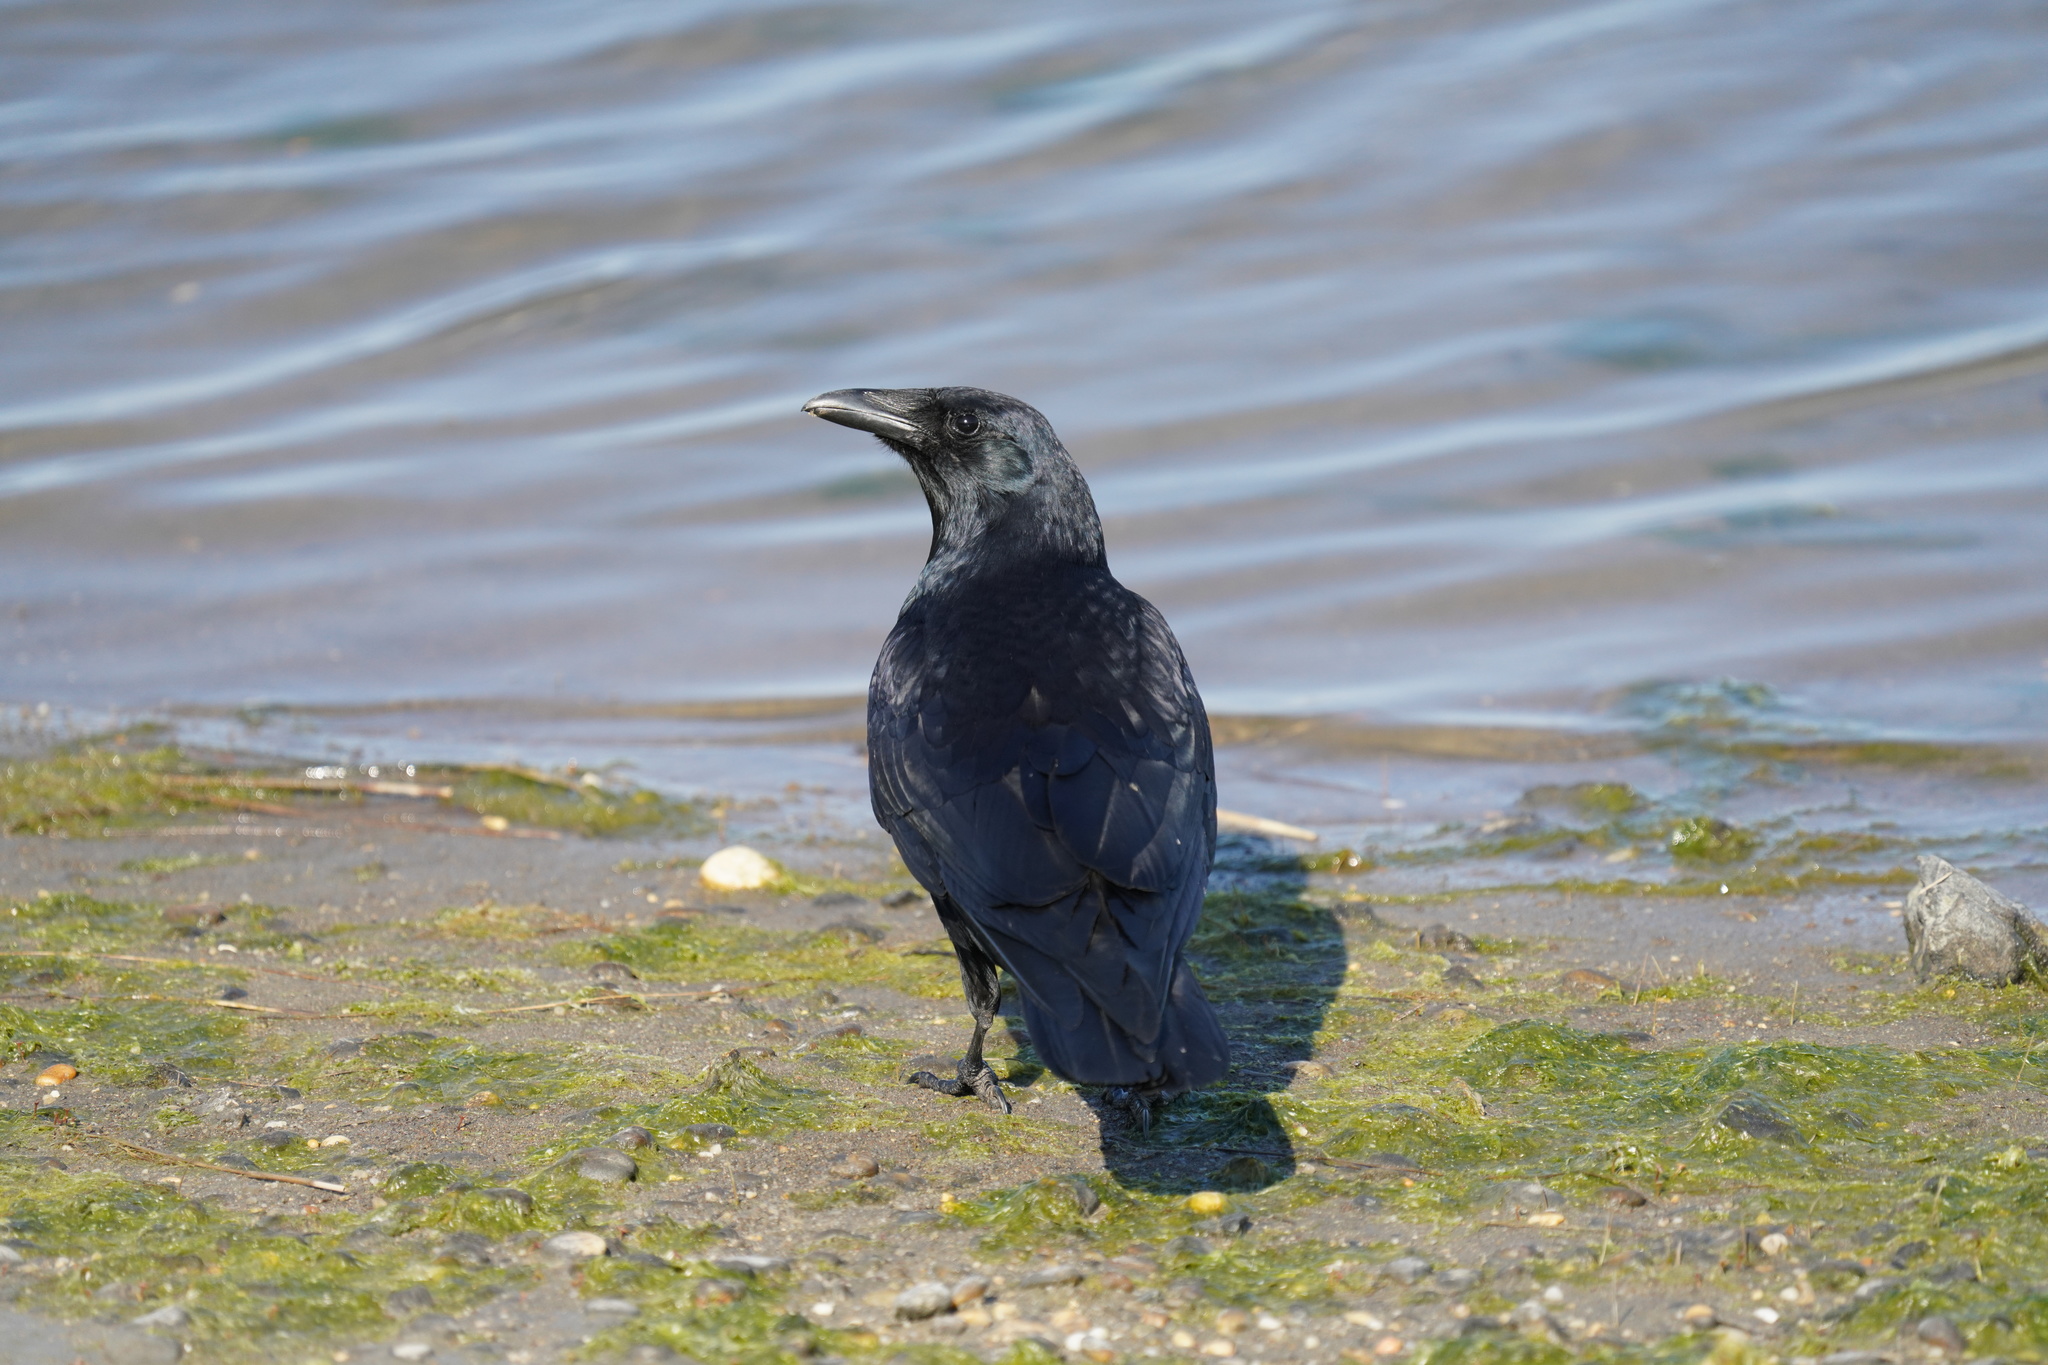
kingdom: Animalia
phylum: Chordata
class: Aves
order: Passeriformes
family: Corvidae
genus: Corvus
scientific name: Corvus ossifragus
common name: Fish crow
